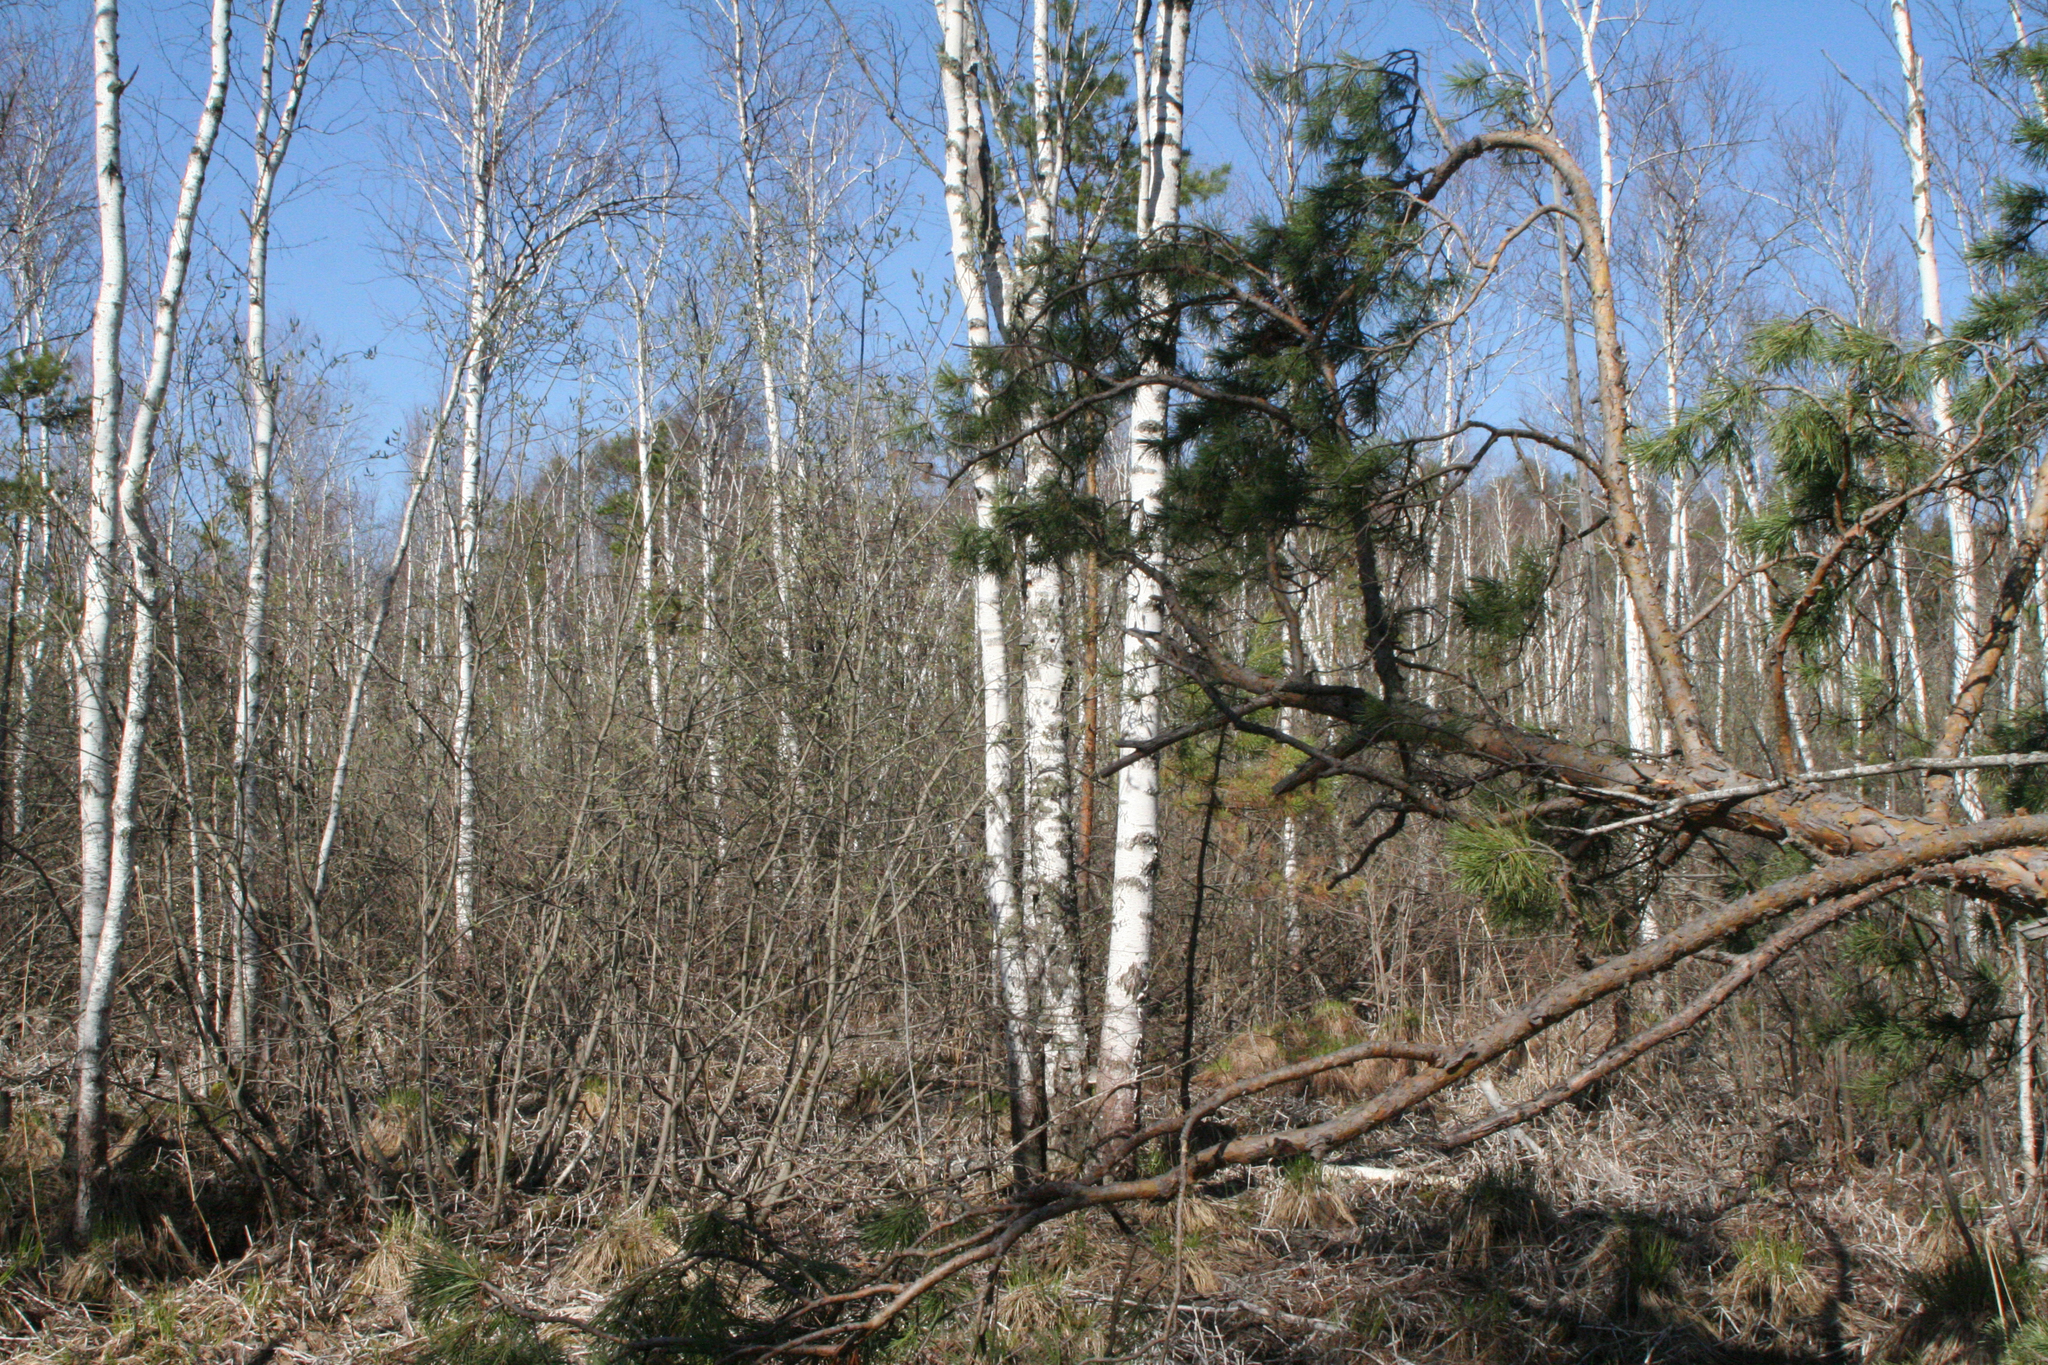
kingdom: Plantae
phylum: Tracheophyta
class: Pinopsida
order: Pinales
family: Pinaceae
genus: Pinus
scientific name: Pinus sylvestris
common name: Scots pine
